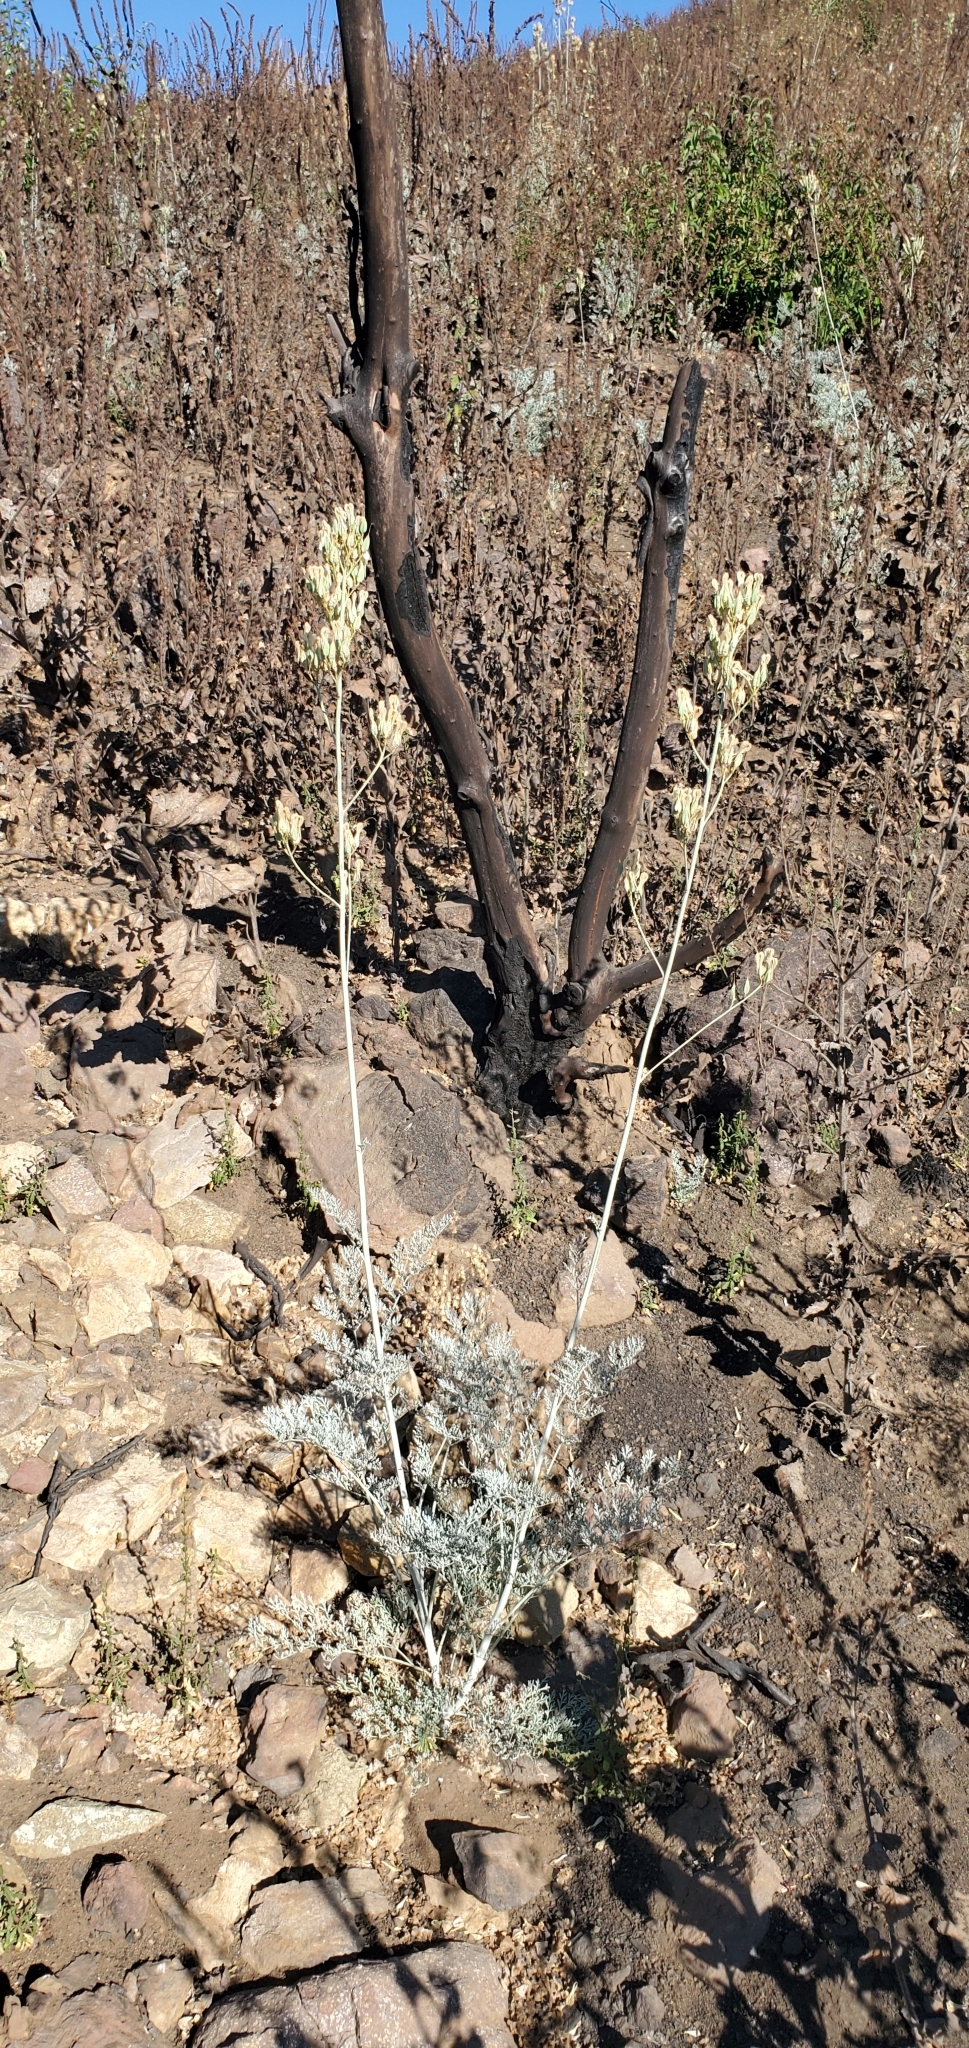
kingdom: Plantae
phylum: Tracheophyta
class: Magnoliopsida
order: Ranunculales
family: Papaveraceae
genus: Ehrendorferia
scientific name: Ehrendorferia ochroleuca
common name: White eardrops
